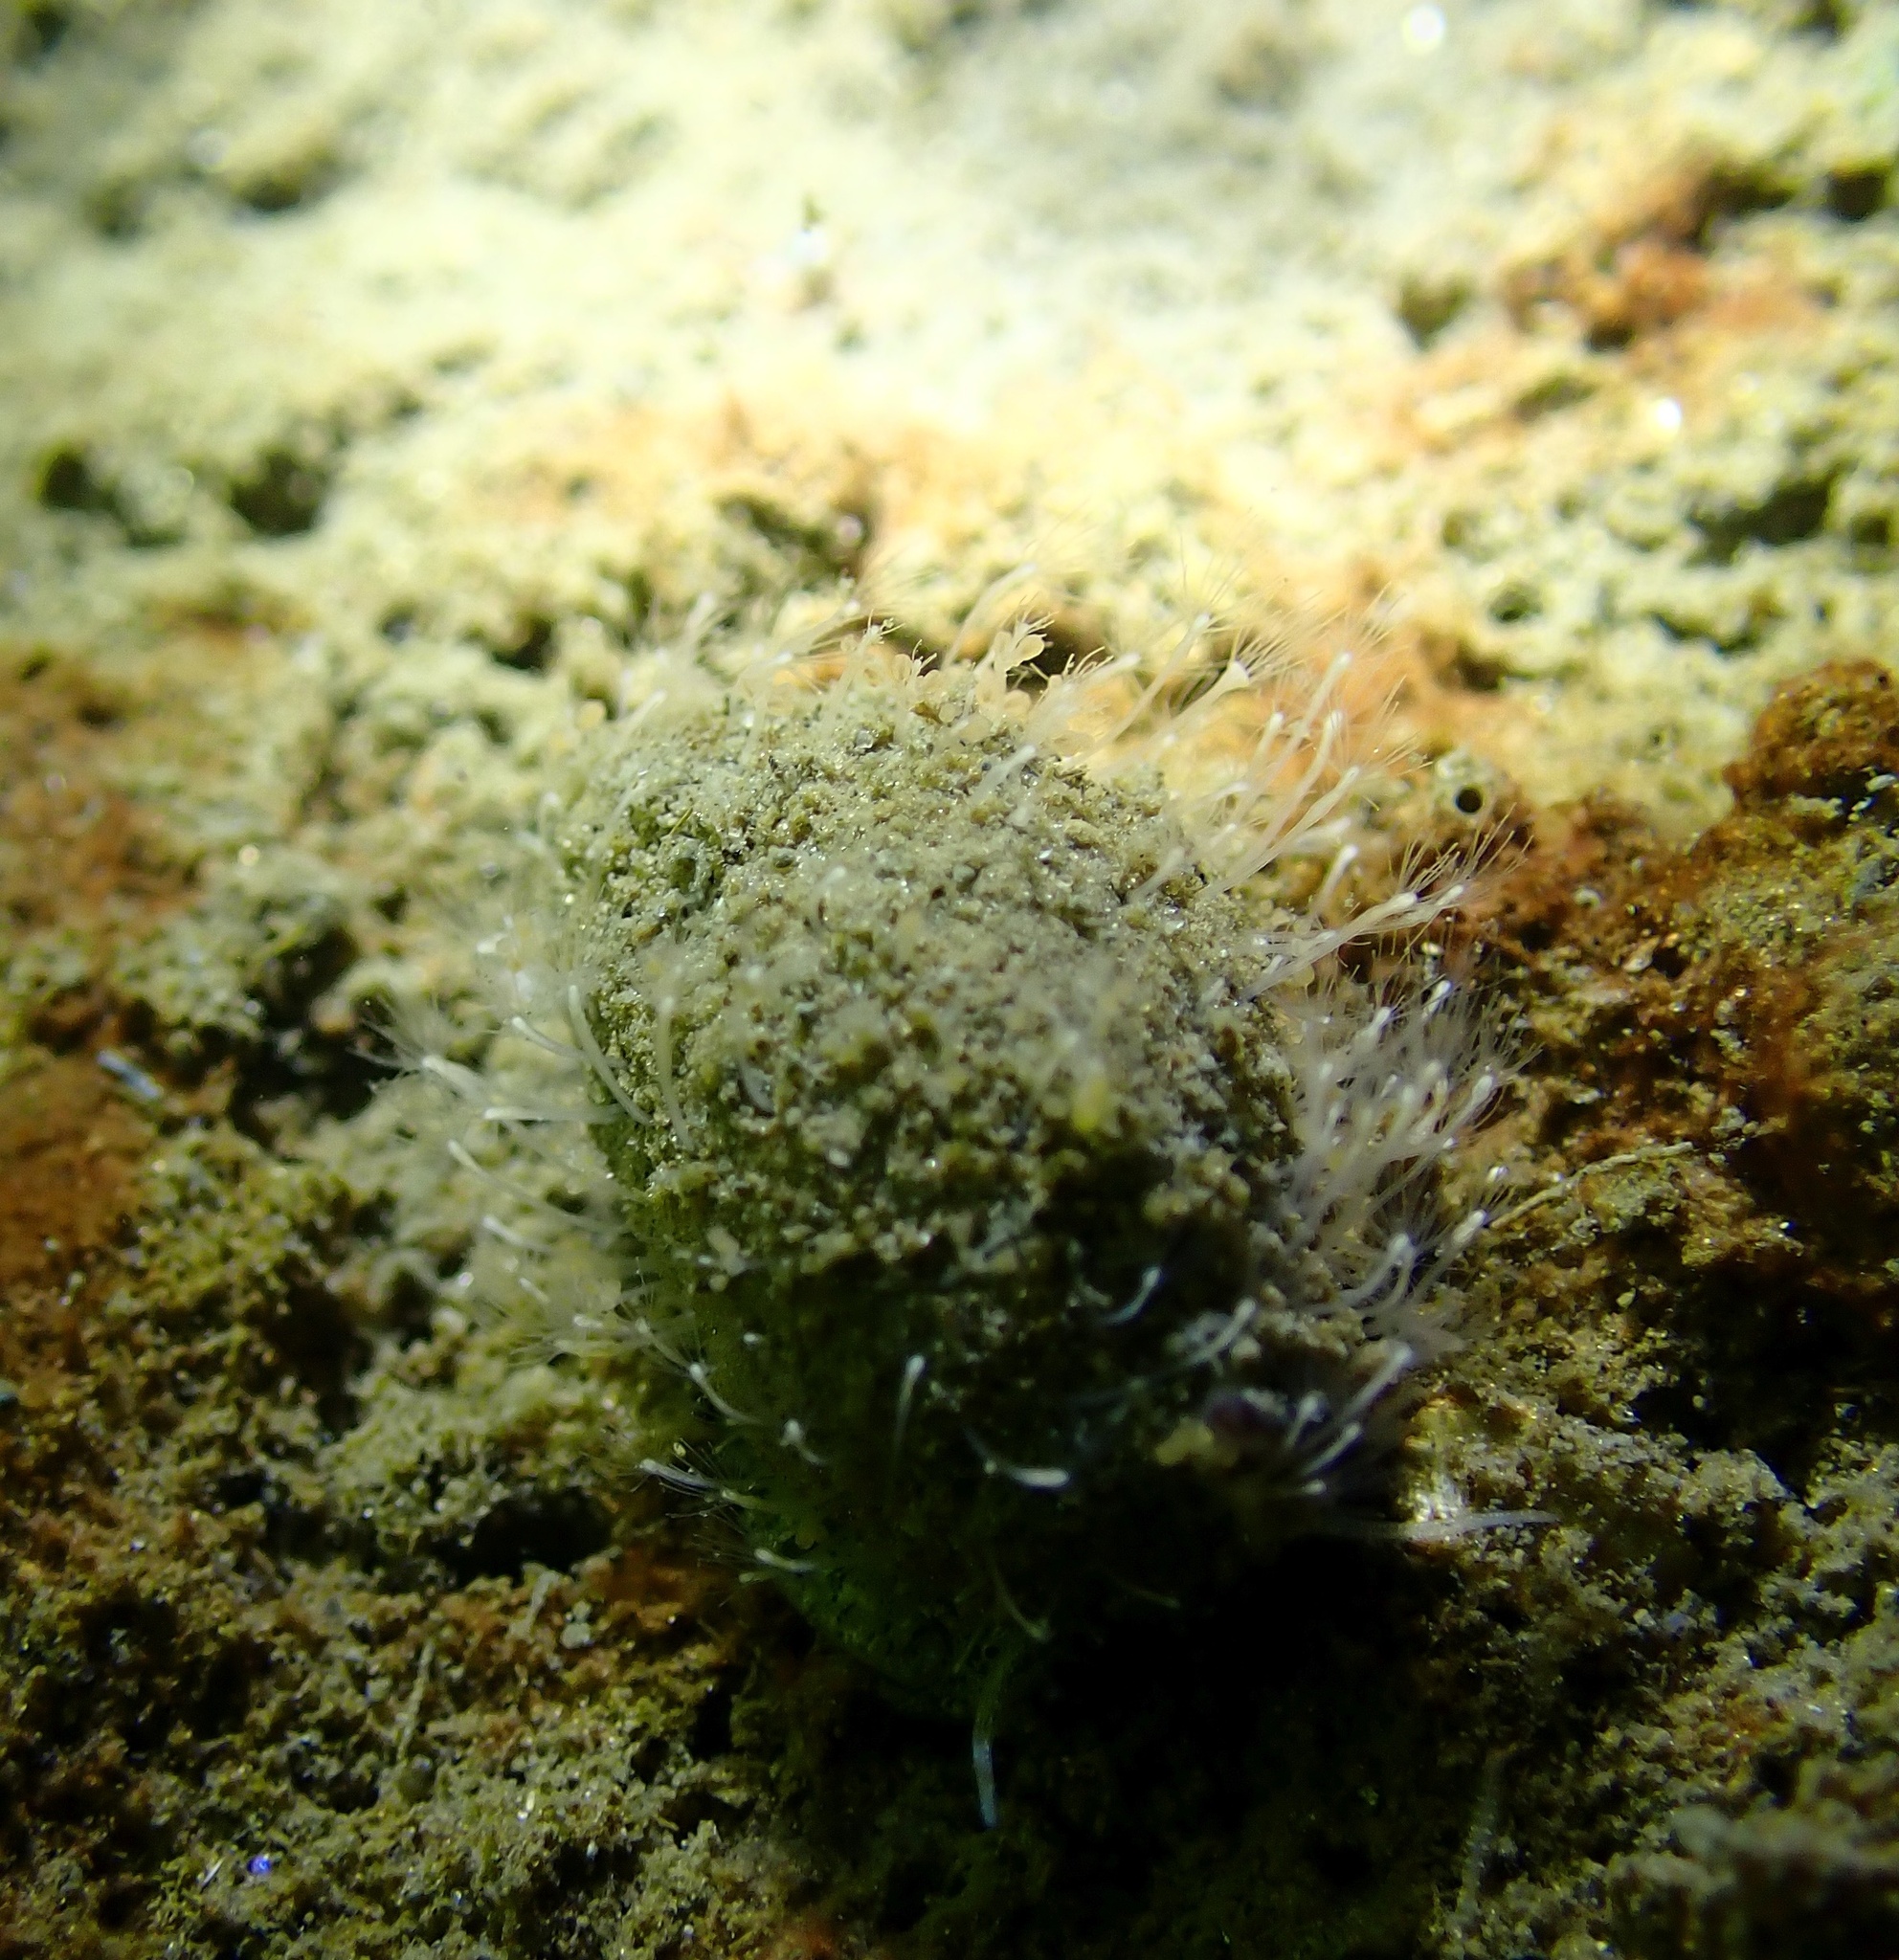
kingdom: Animalia
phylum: Cnidaria
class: Hydrozoa
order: Anthoathecata
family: Hydractiniidae
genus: Hydractinia
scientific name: Hydractinia echinata
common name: Rough hydroid
